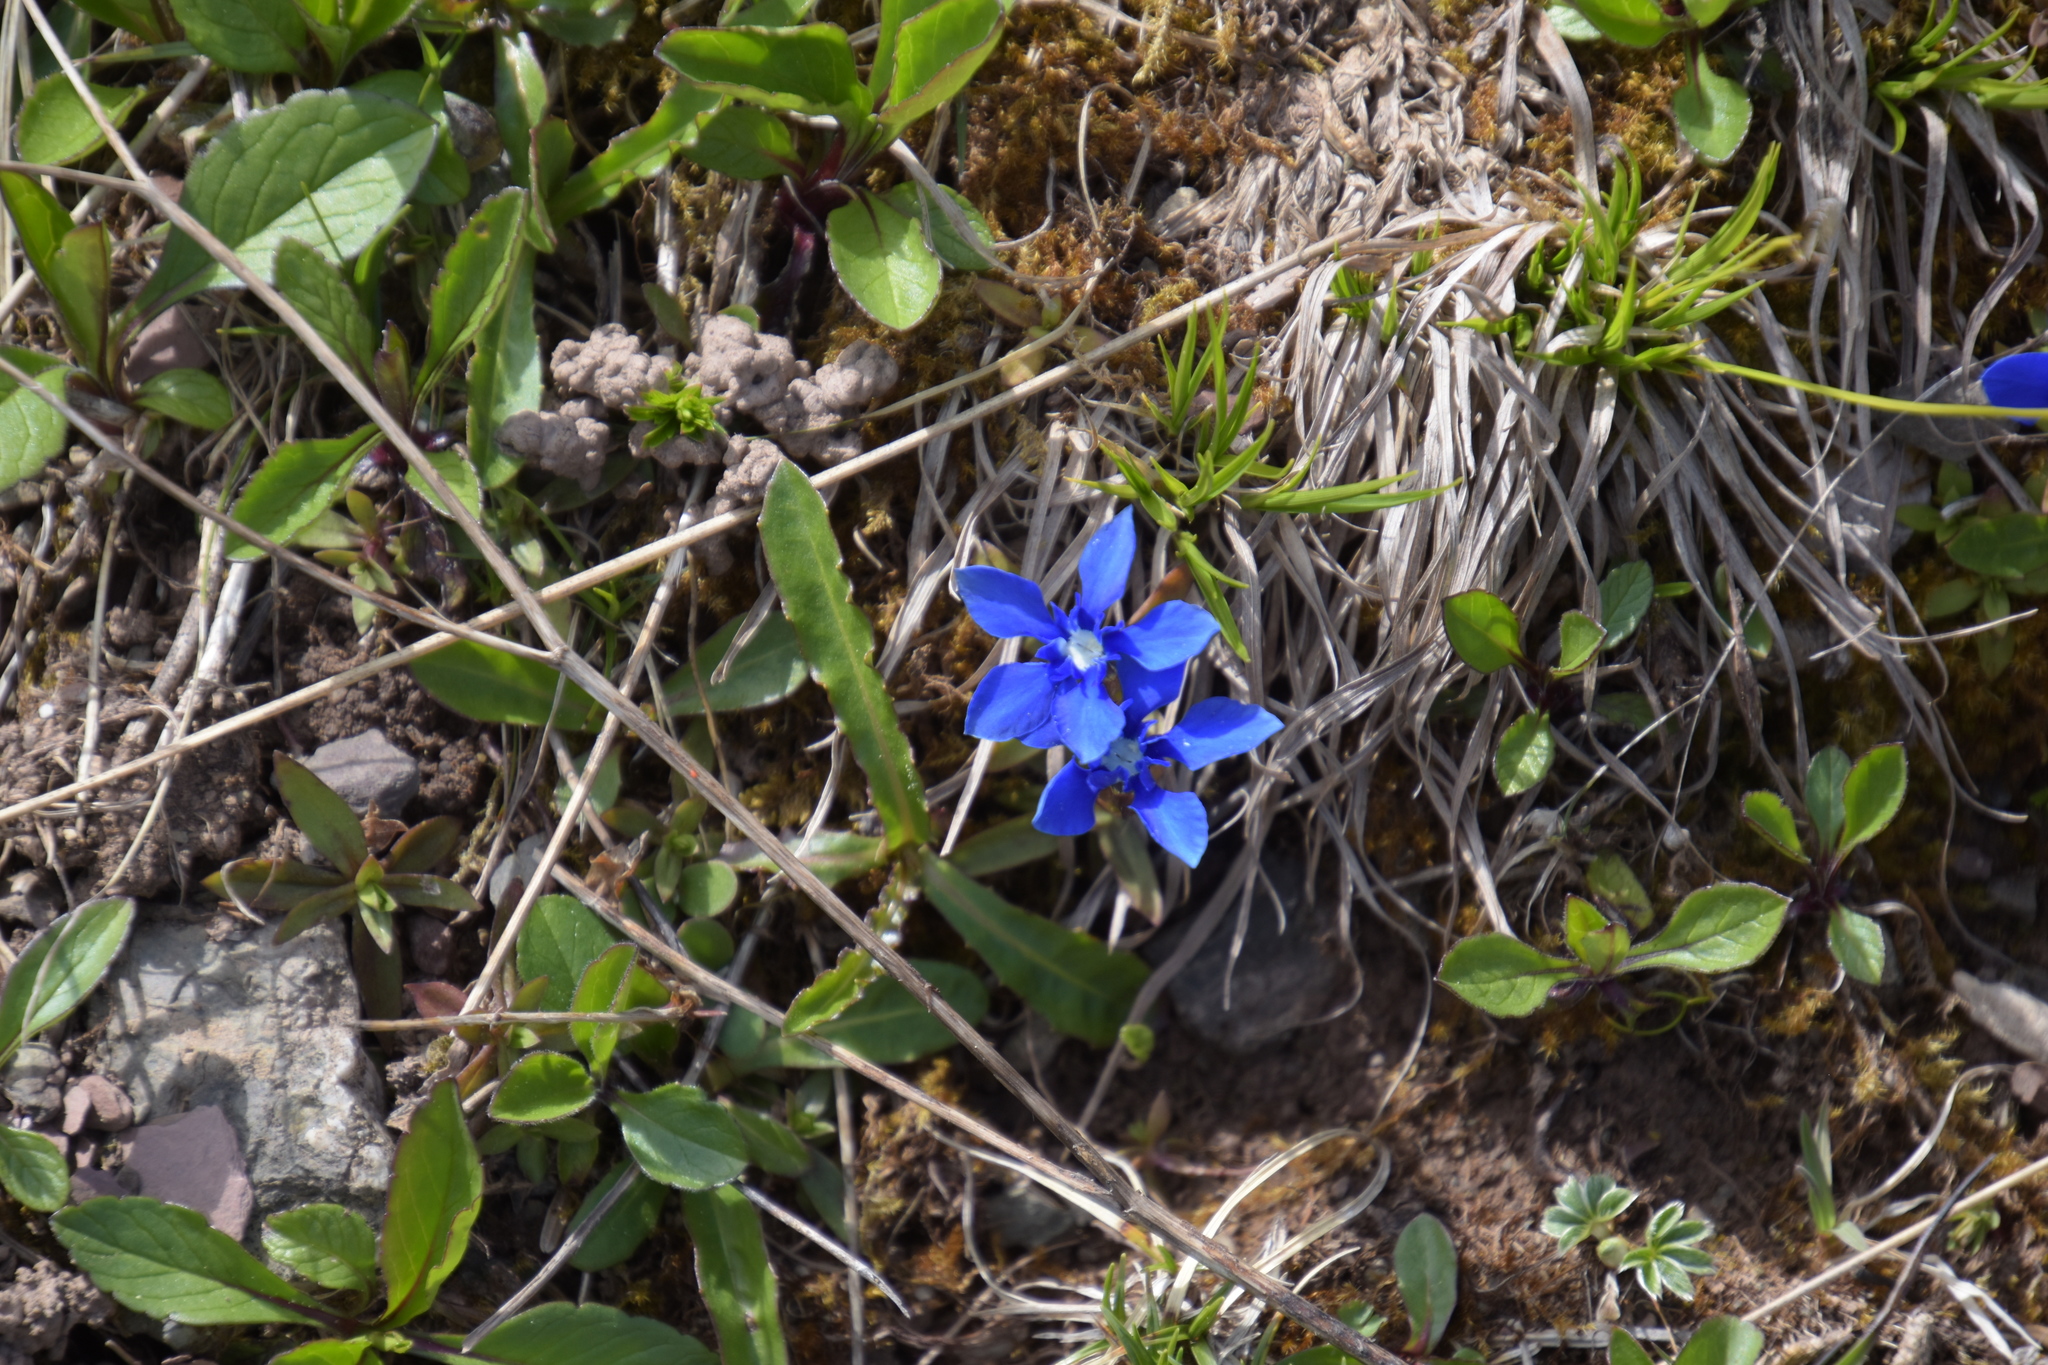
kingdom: Plantae
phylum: Tracheophyta
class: Magnoliopsida
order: Gentianales
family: Gentianaceae
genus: Gentiana
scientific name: Gentiana verna
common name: Spring gentian
